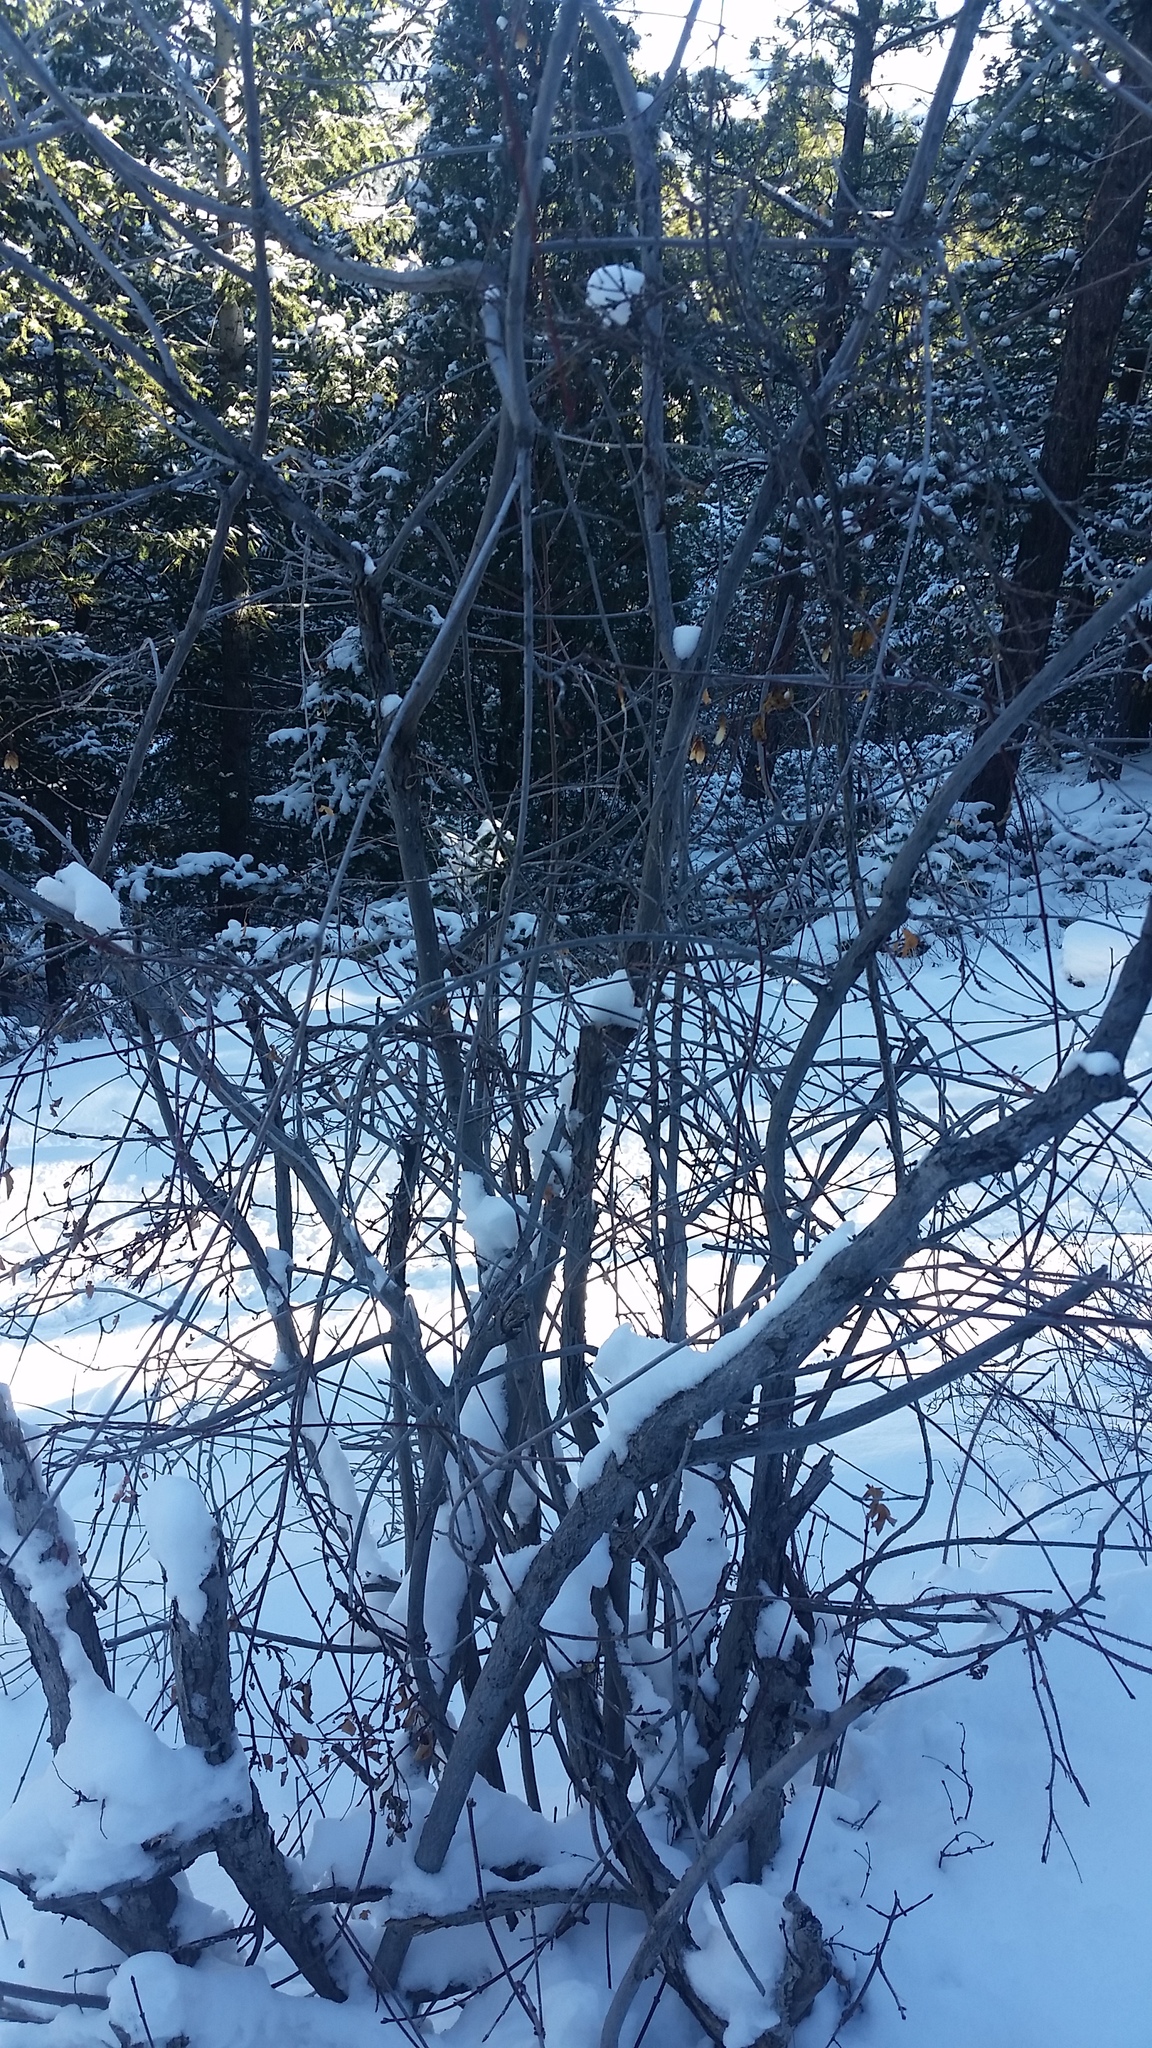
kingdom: Plantae
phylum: Tracheophyta
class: Magnoliopsida
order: Sapindales
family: Sapindaceae
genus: Acer
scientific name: Acer glabrum
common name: Rocky mountain maple
